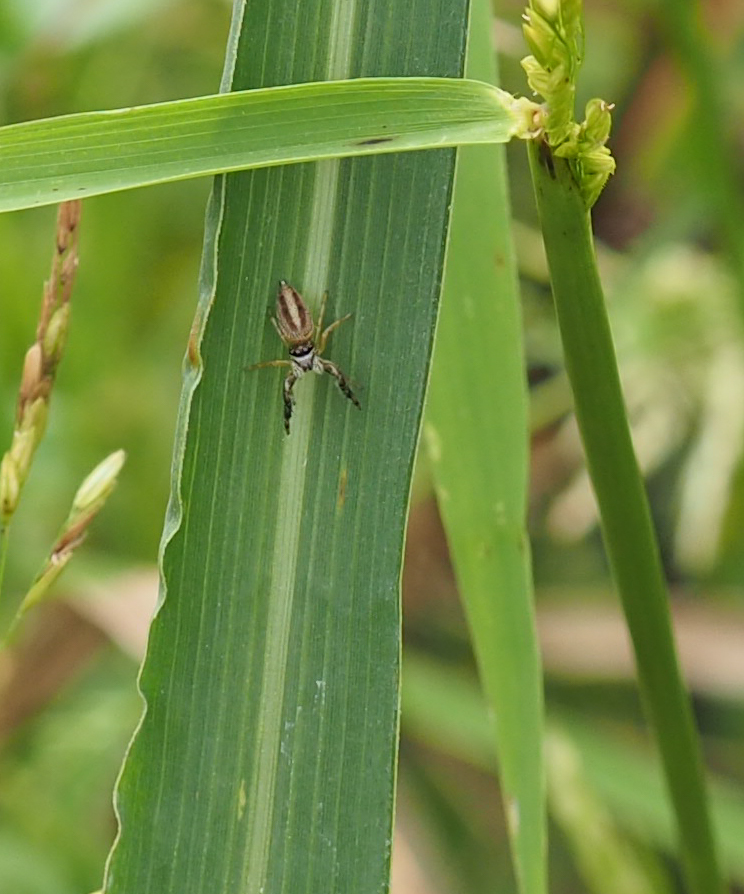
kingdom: Animalia
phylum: Arthropoda
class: Arachnida
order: Araneae
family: Salticidae
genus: Marpissa
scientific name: Marpissa formosa
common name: Short-bellied slender jumping spider
